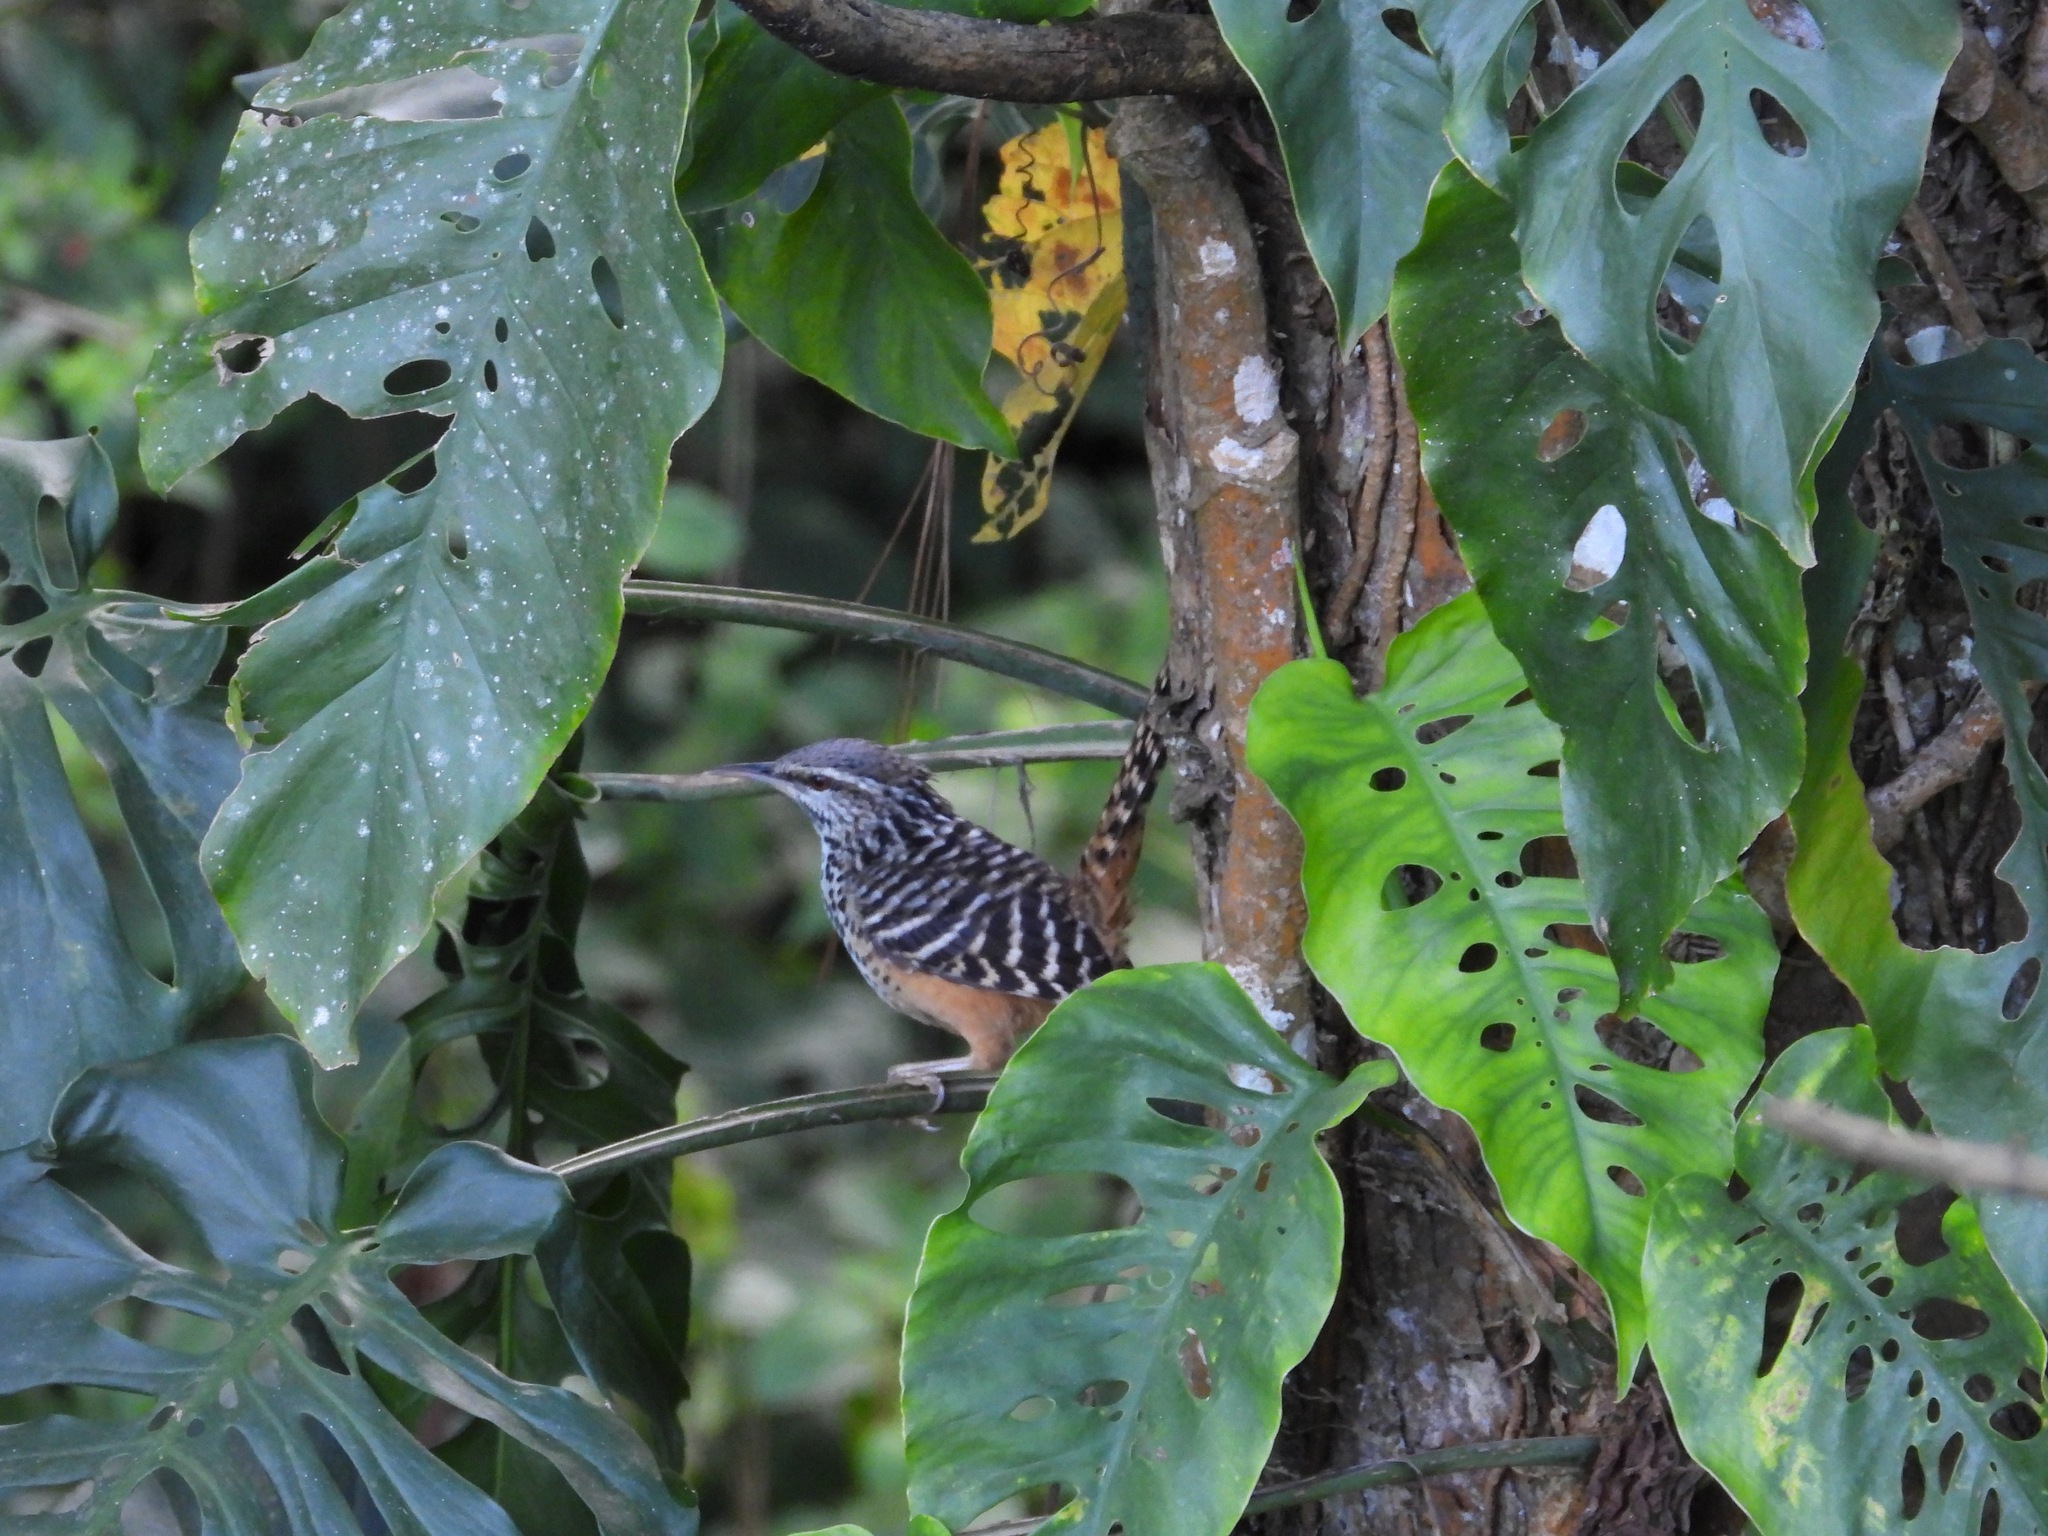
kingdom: Animalia
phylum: Chordata
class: Aves
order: Passeriformes
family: Troglodytidae
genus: Campylorhynchus
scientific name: Campylorhynchus zonatus
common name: Band-backed wren
